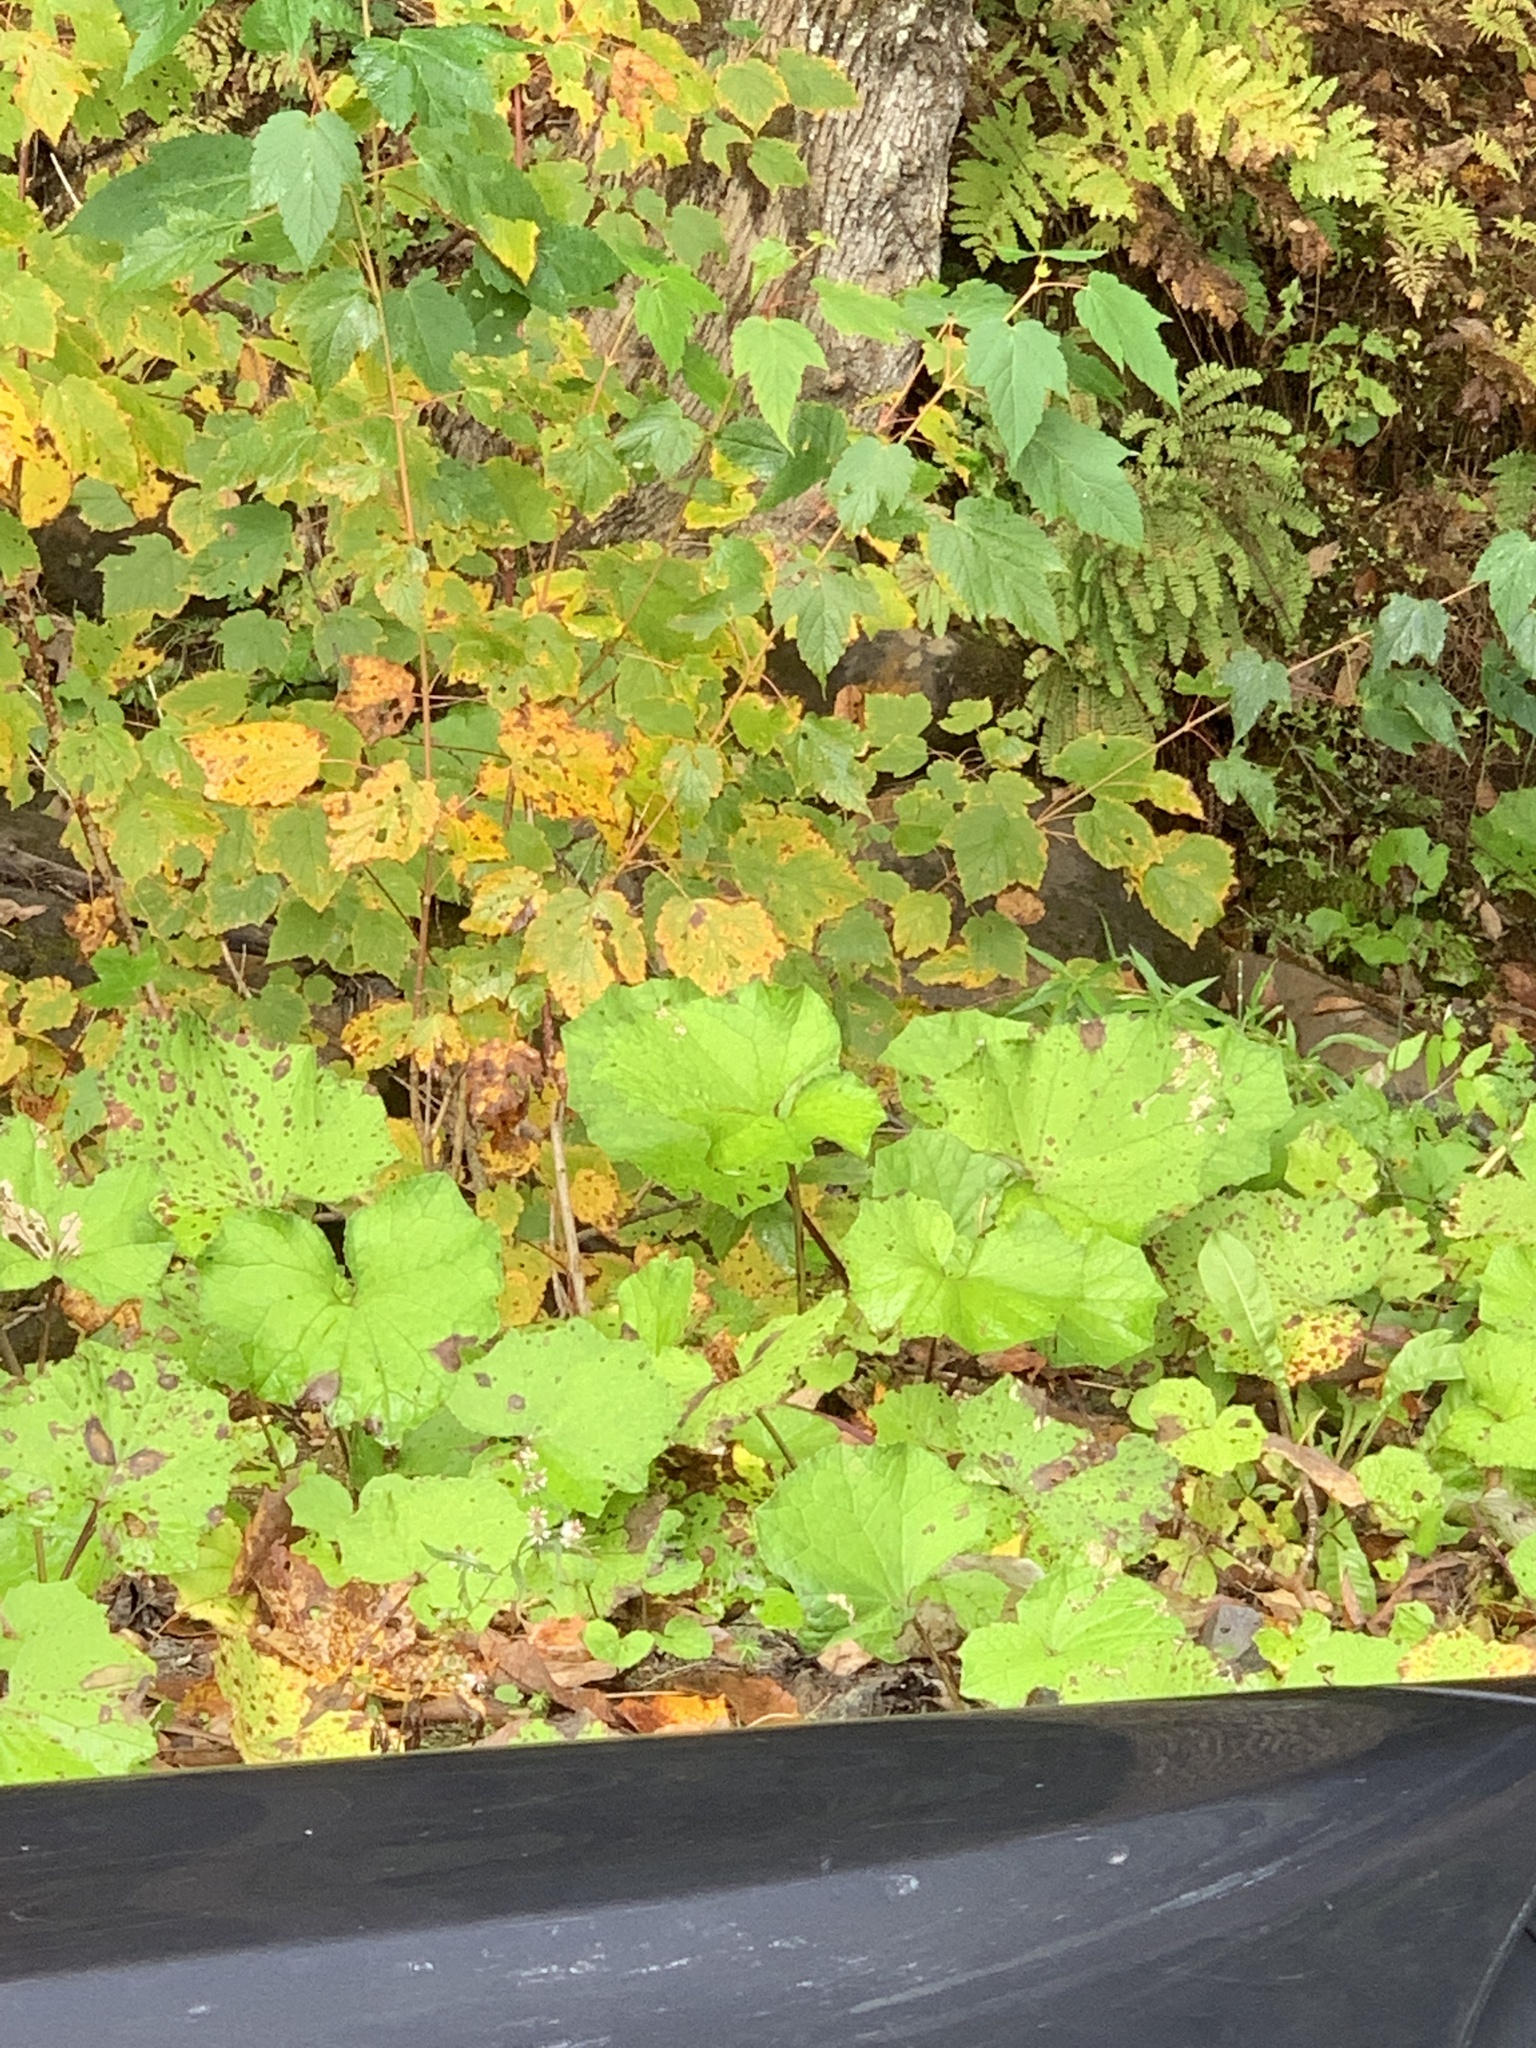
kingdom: Plantae
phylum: Tracheophyta
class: Magnoliopsida
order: Asterales
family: Asteraceae
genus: Tussilago
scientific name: Tussilago farfara
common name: Coltsfoot
